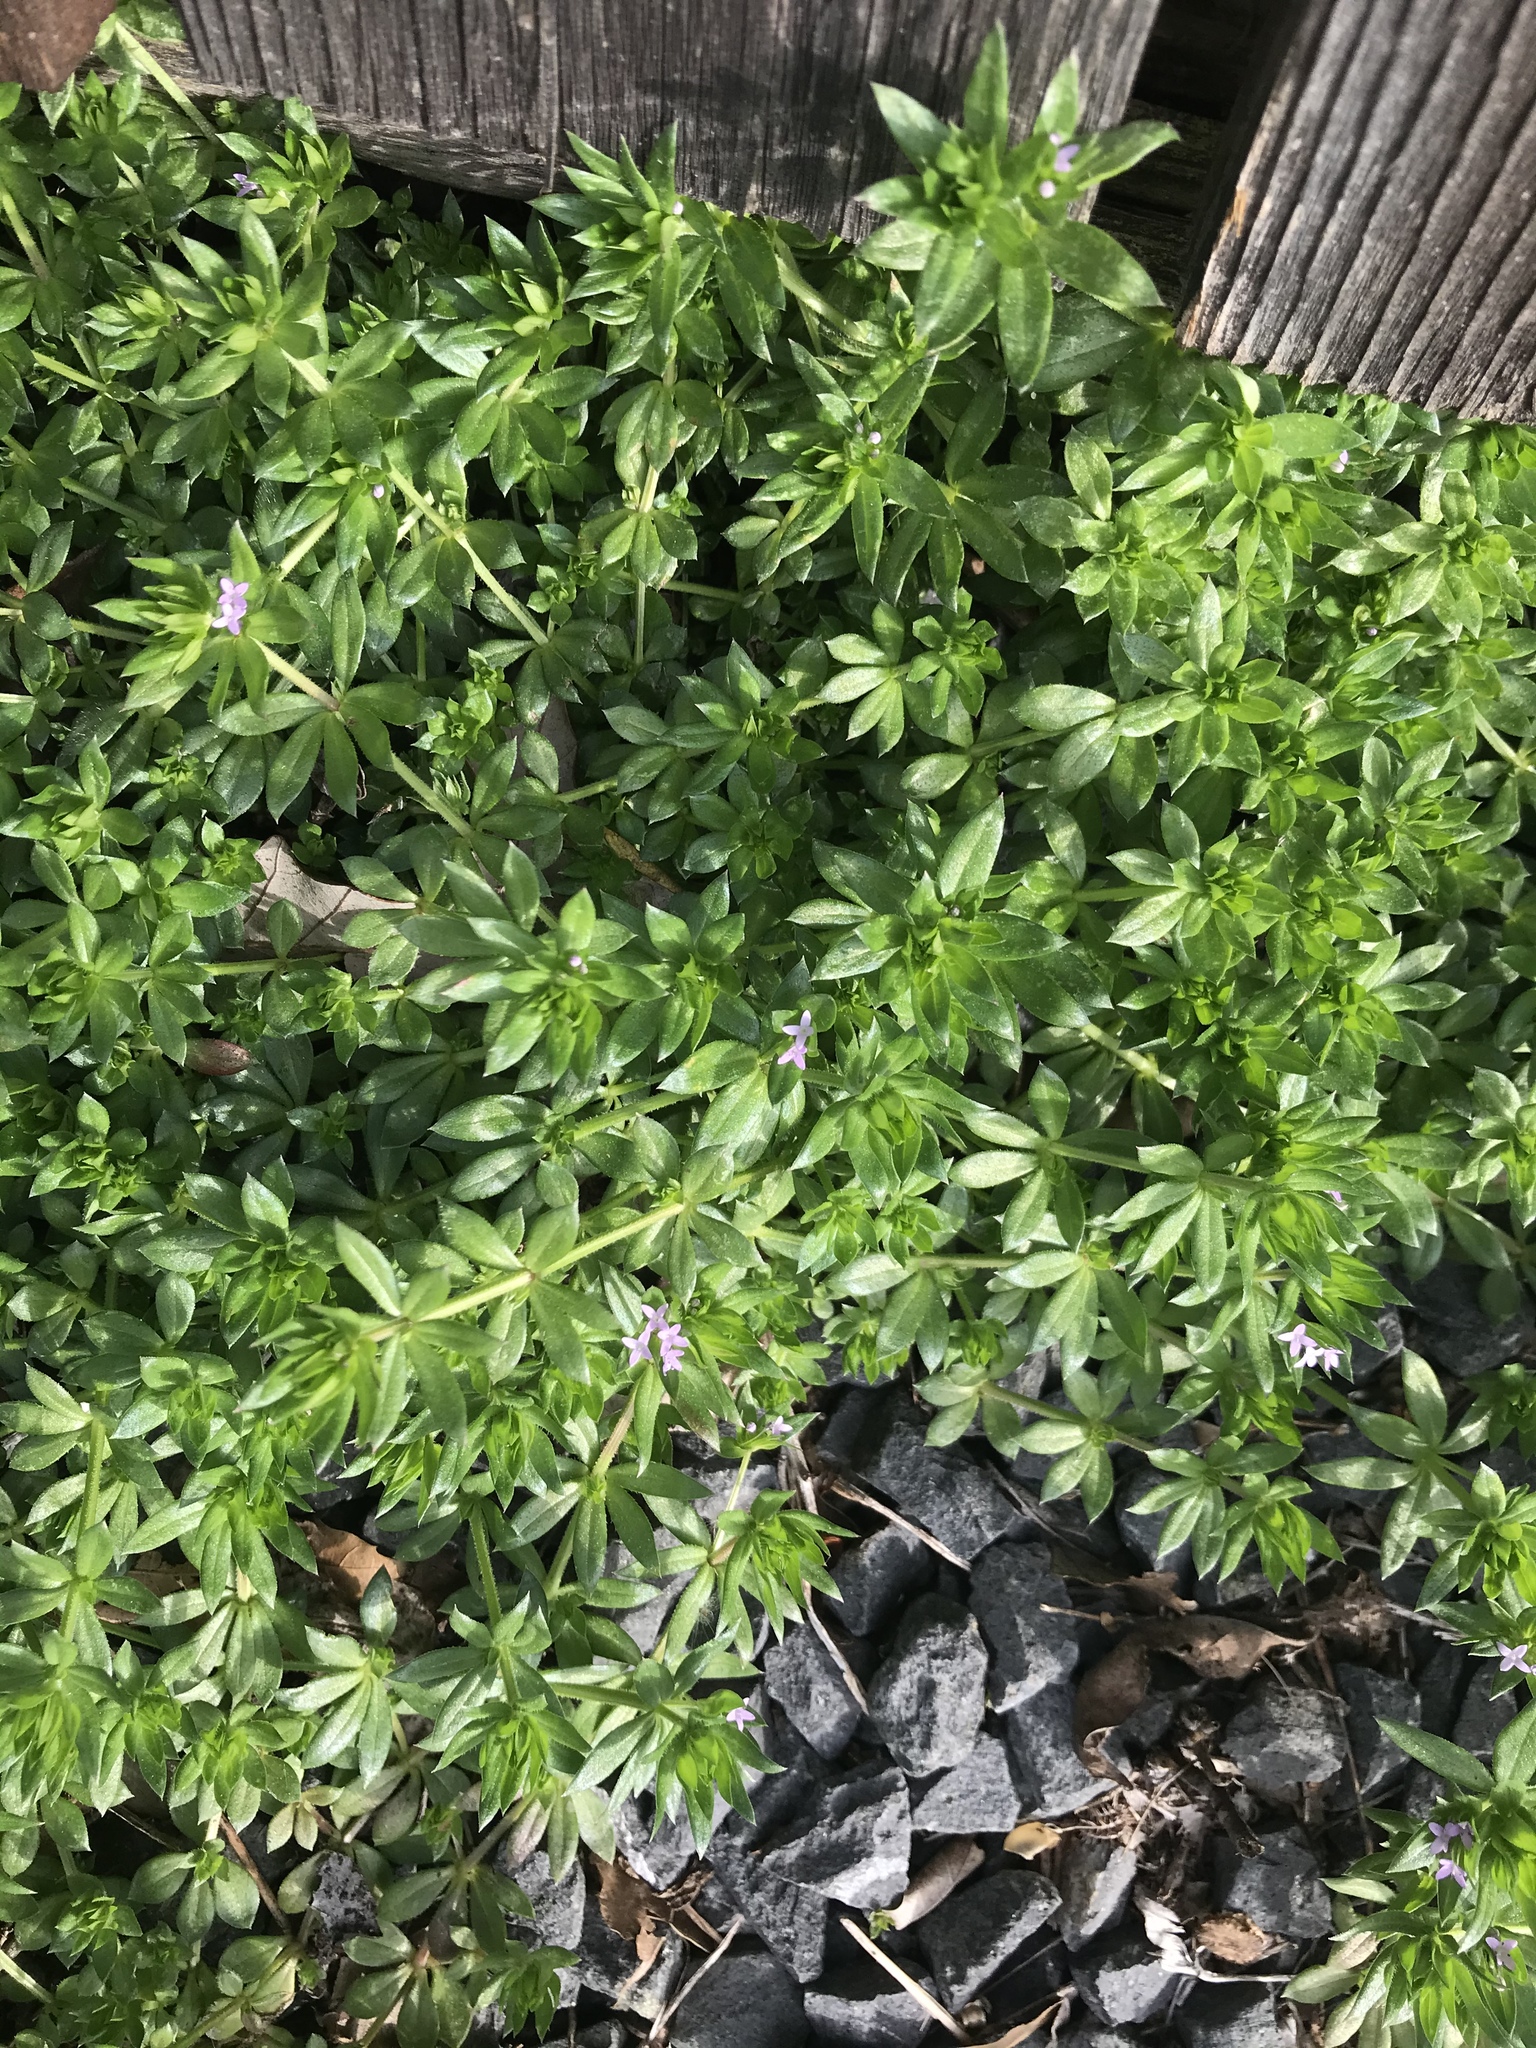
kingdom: Plantae
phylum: Tracheophyta
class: Magnoliopsida
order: Gentianales
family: Rubiaceae
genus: Sherardia
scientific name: Sherardia arvensis
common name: Field madder
